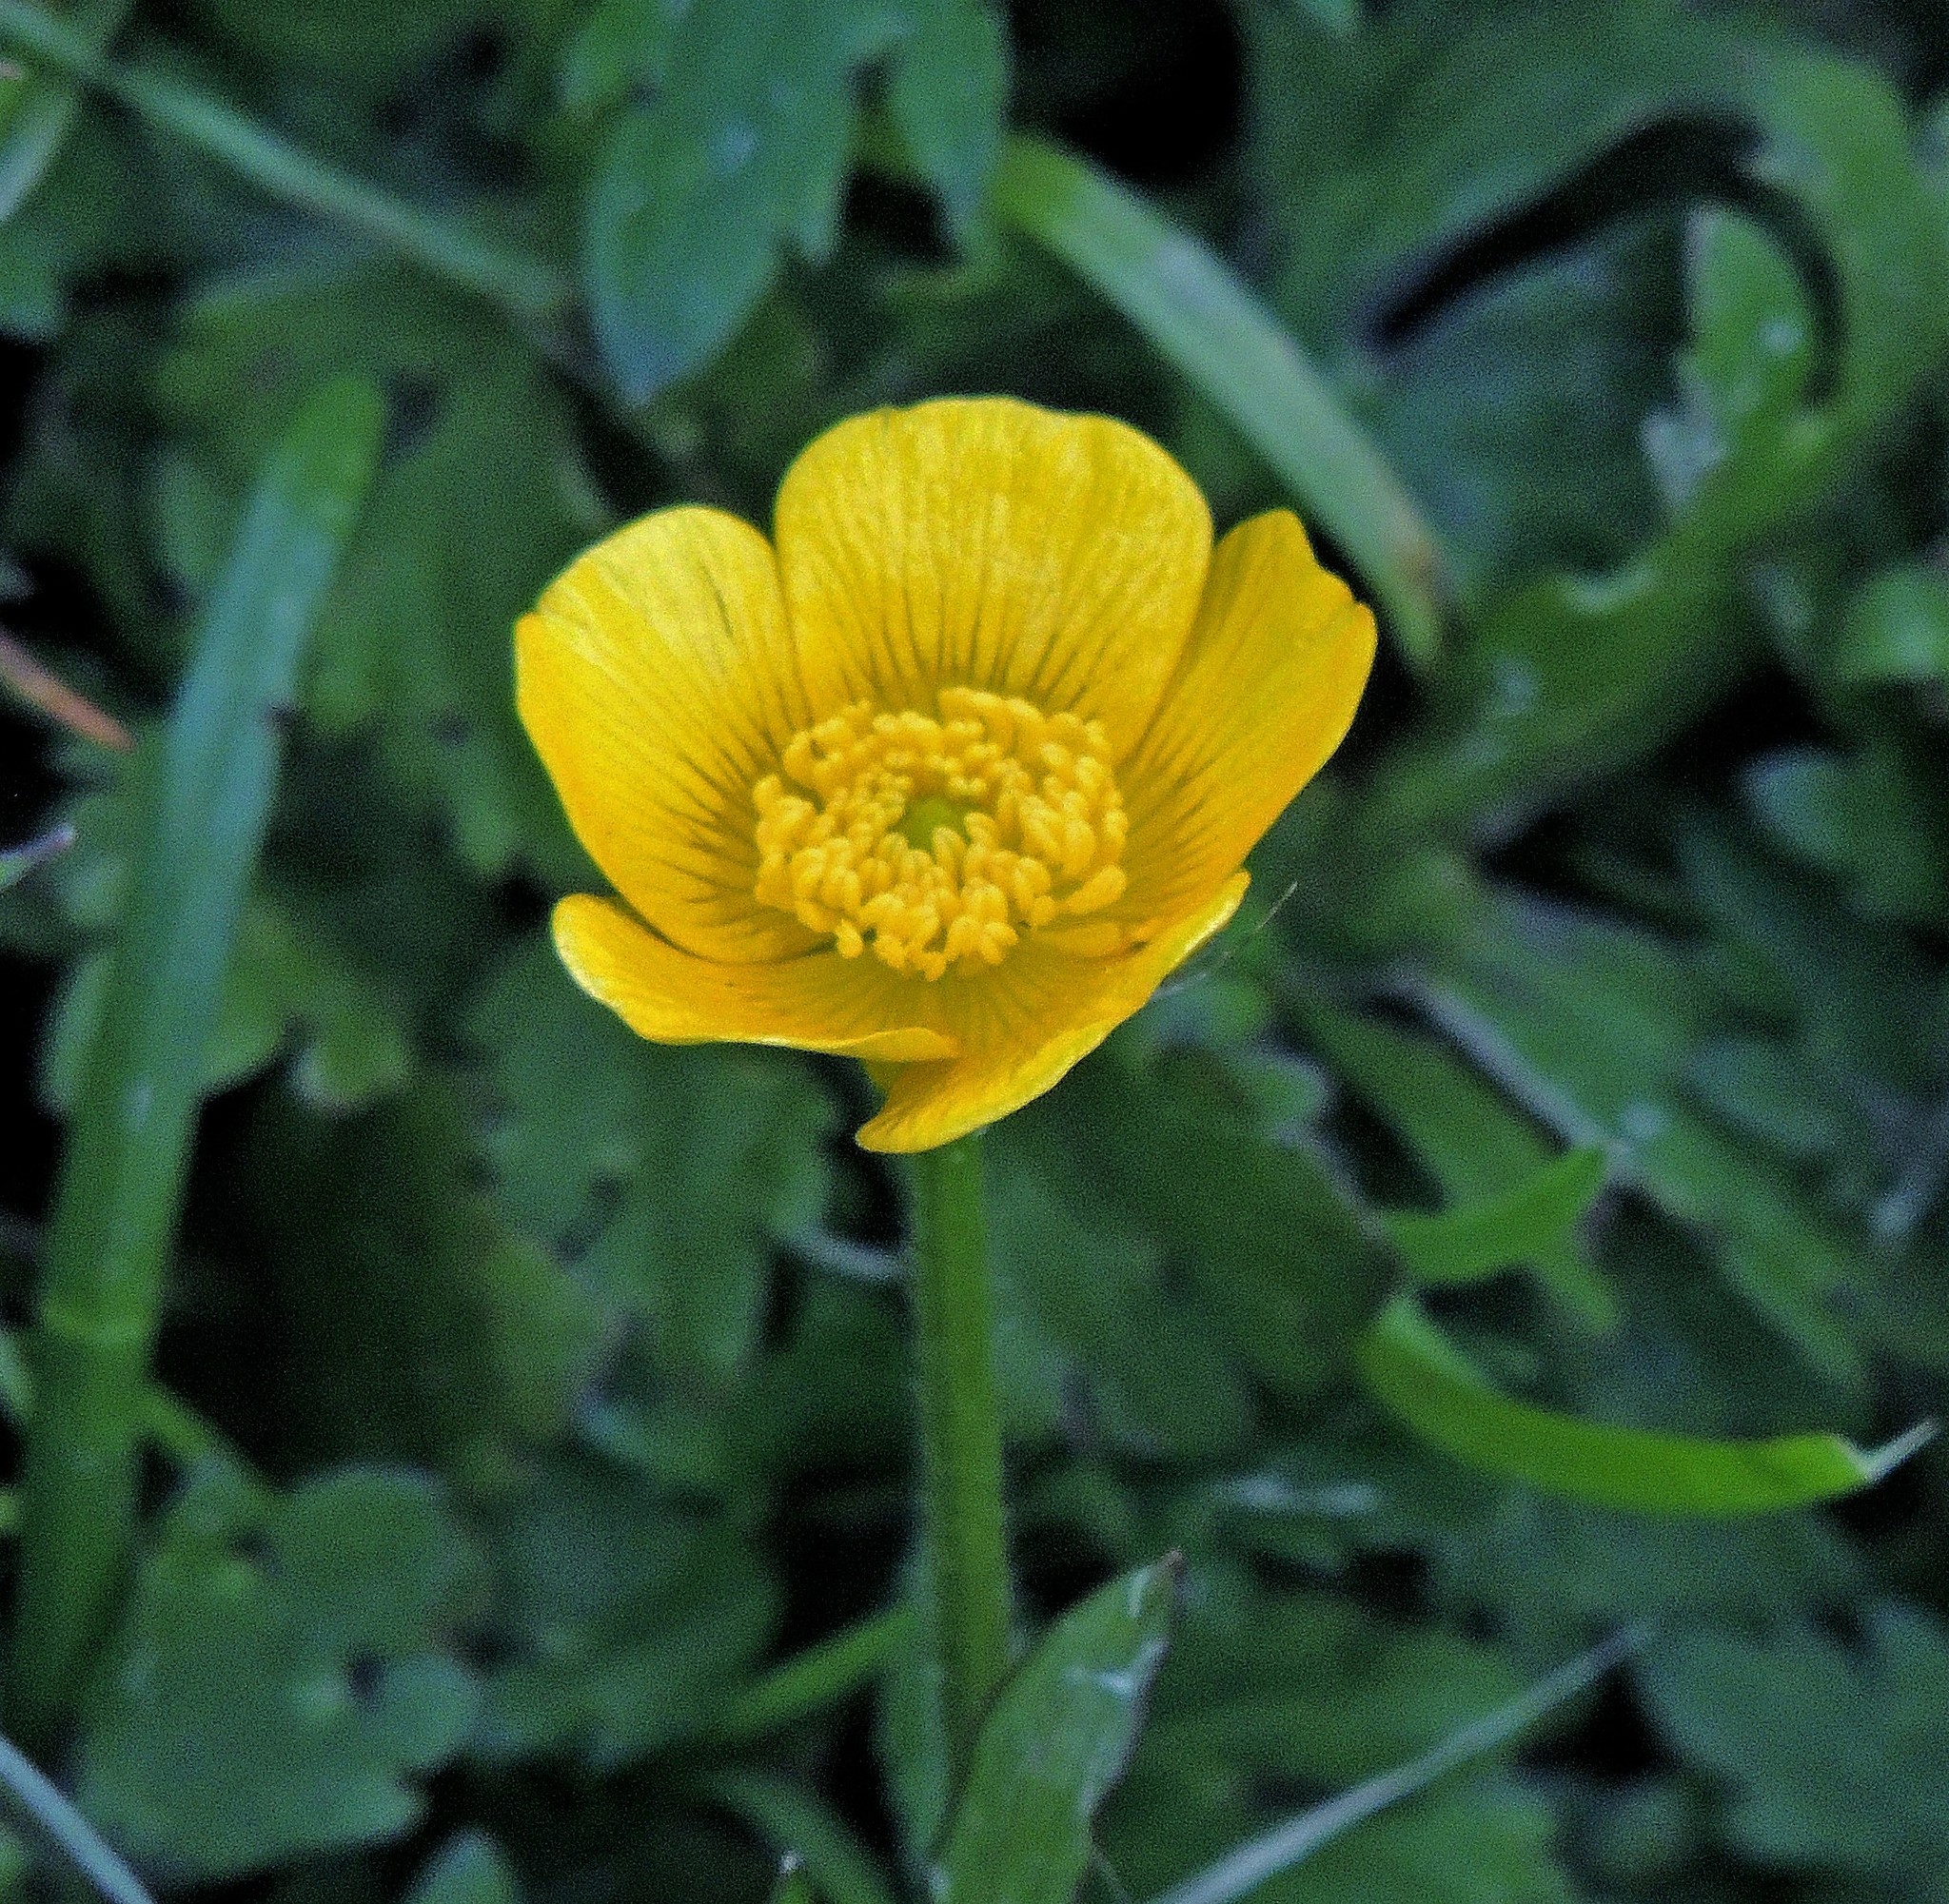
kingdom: Plantae
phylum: Tracheophyta
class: Magnoliopsida
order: Ranunculales
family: Ranunculaceae
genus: Ranunculus
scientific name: Ranunculus repens
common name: Creeping buttercup
